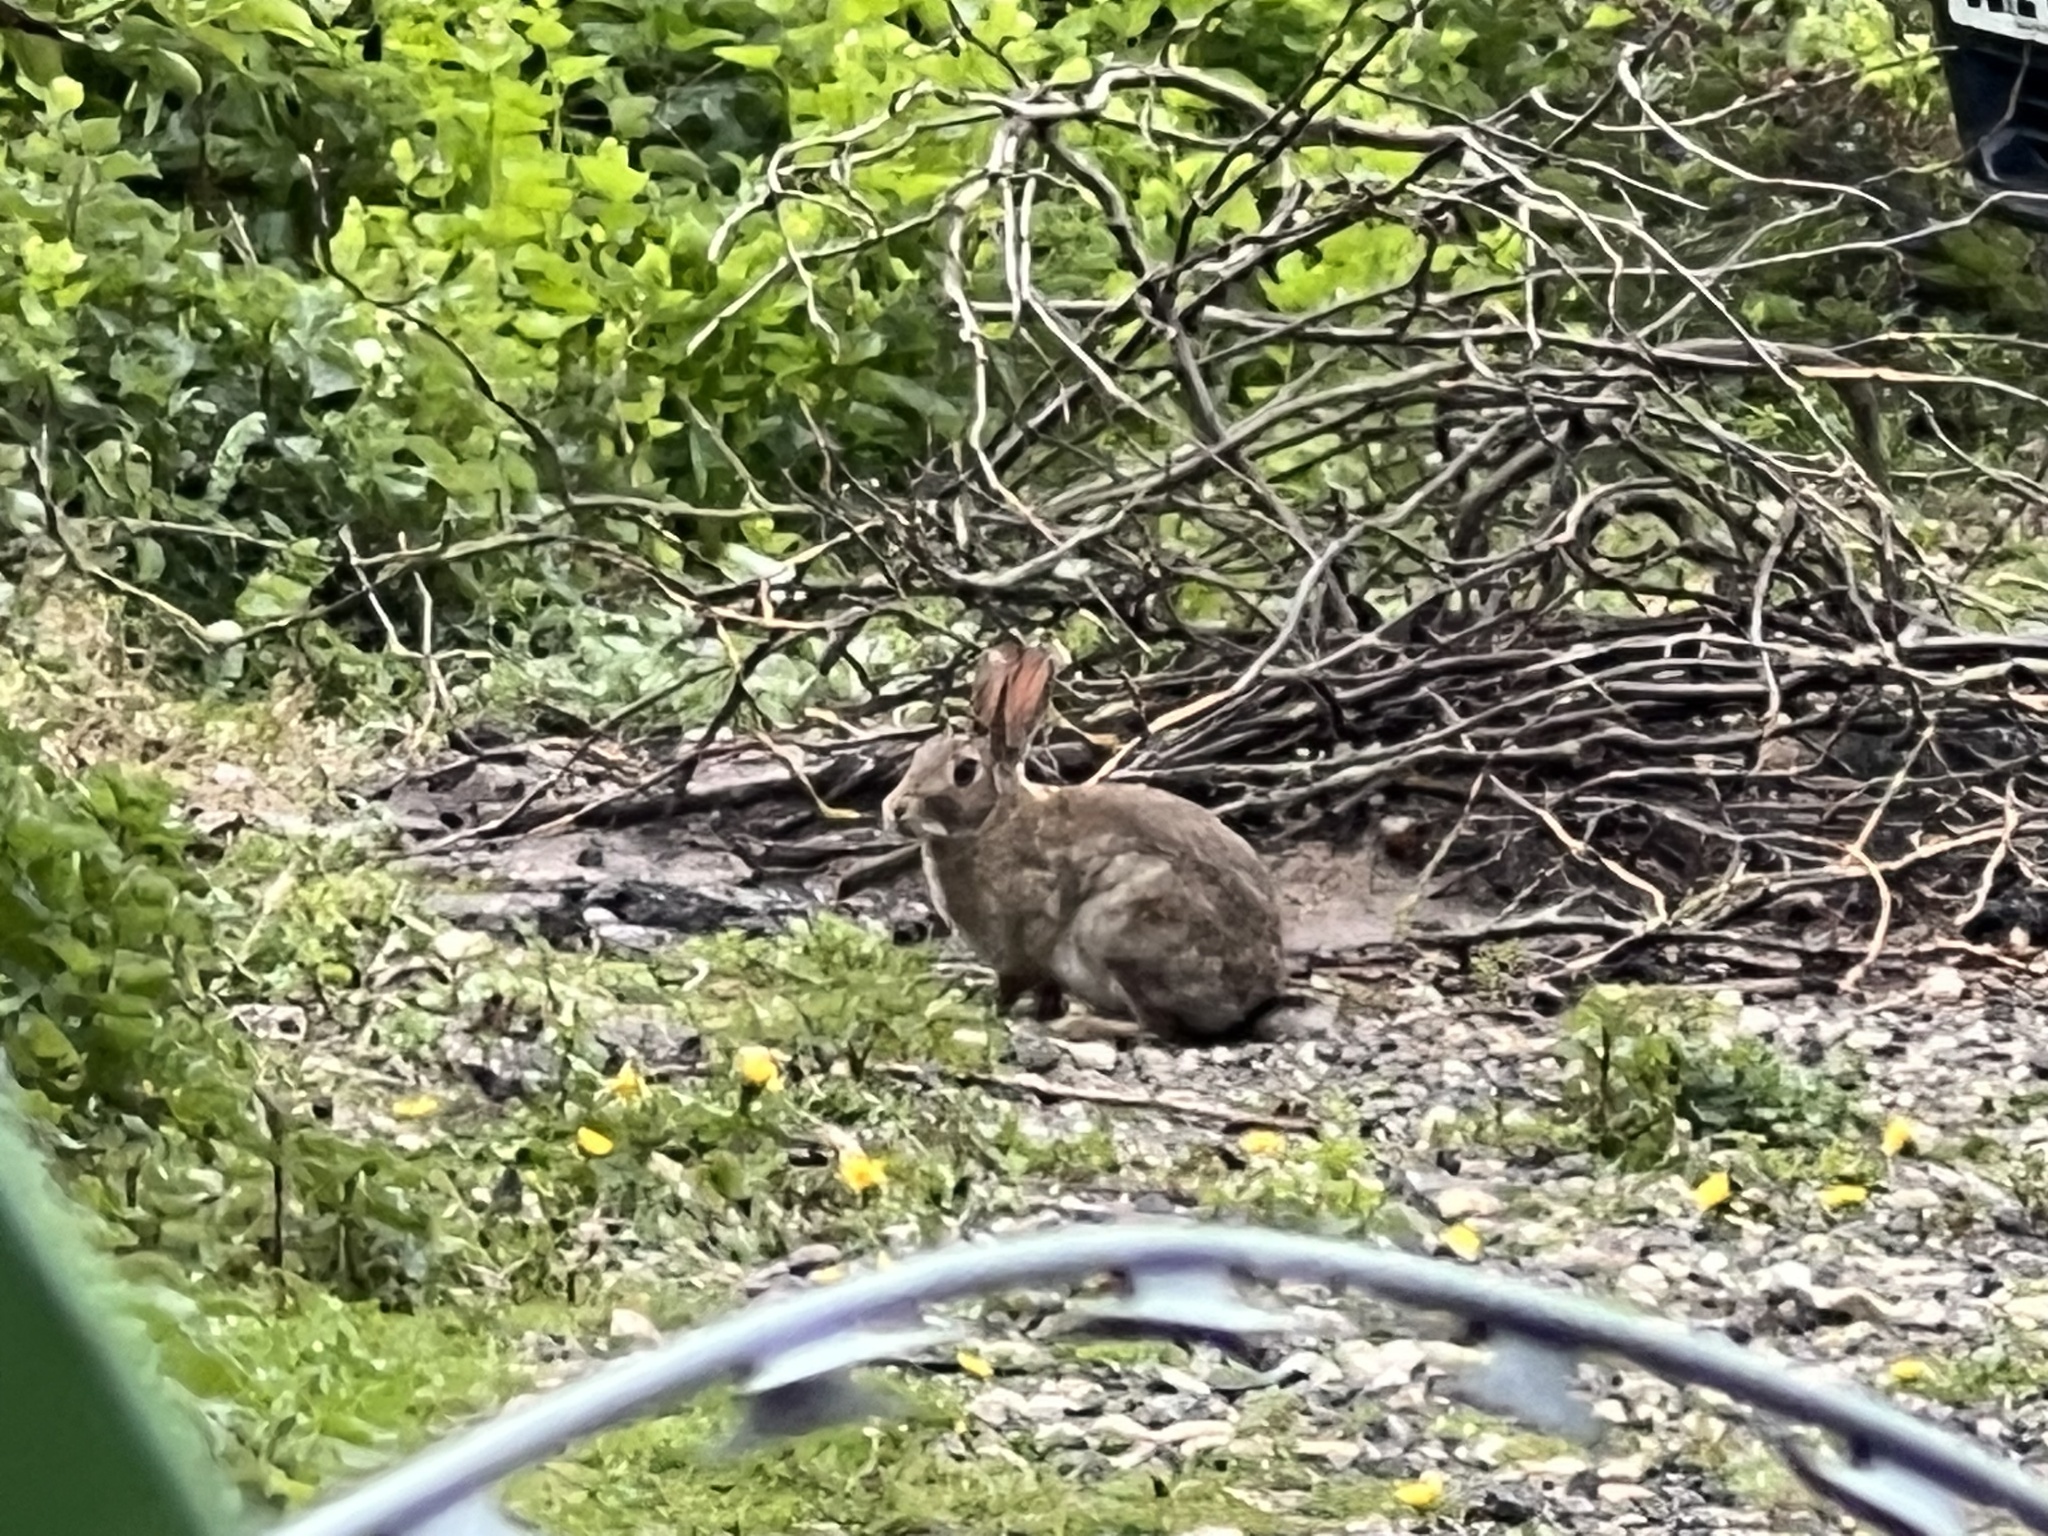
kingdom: Animalia
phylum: Chordata
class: Mammalia
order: Lagomorpha
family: Leporidae
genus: Oryctolagus
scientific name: Oryctolagus cuniculus
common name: European rabbit
